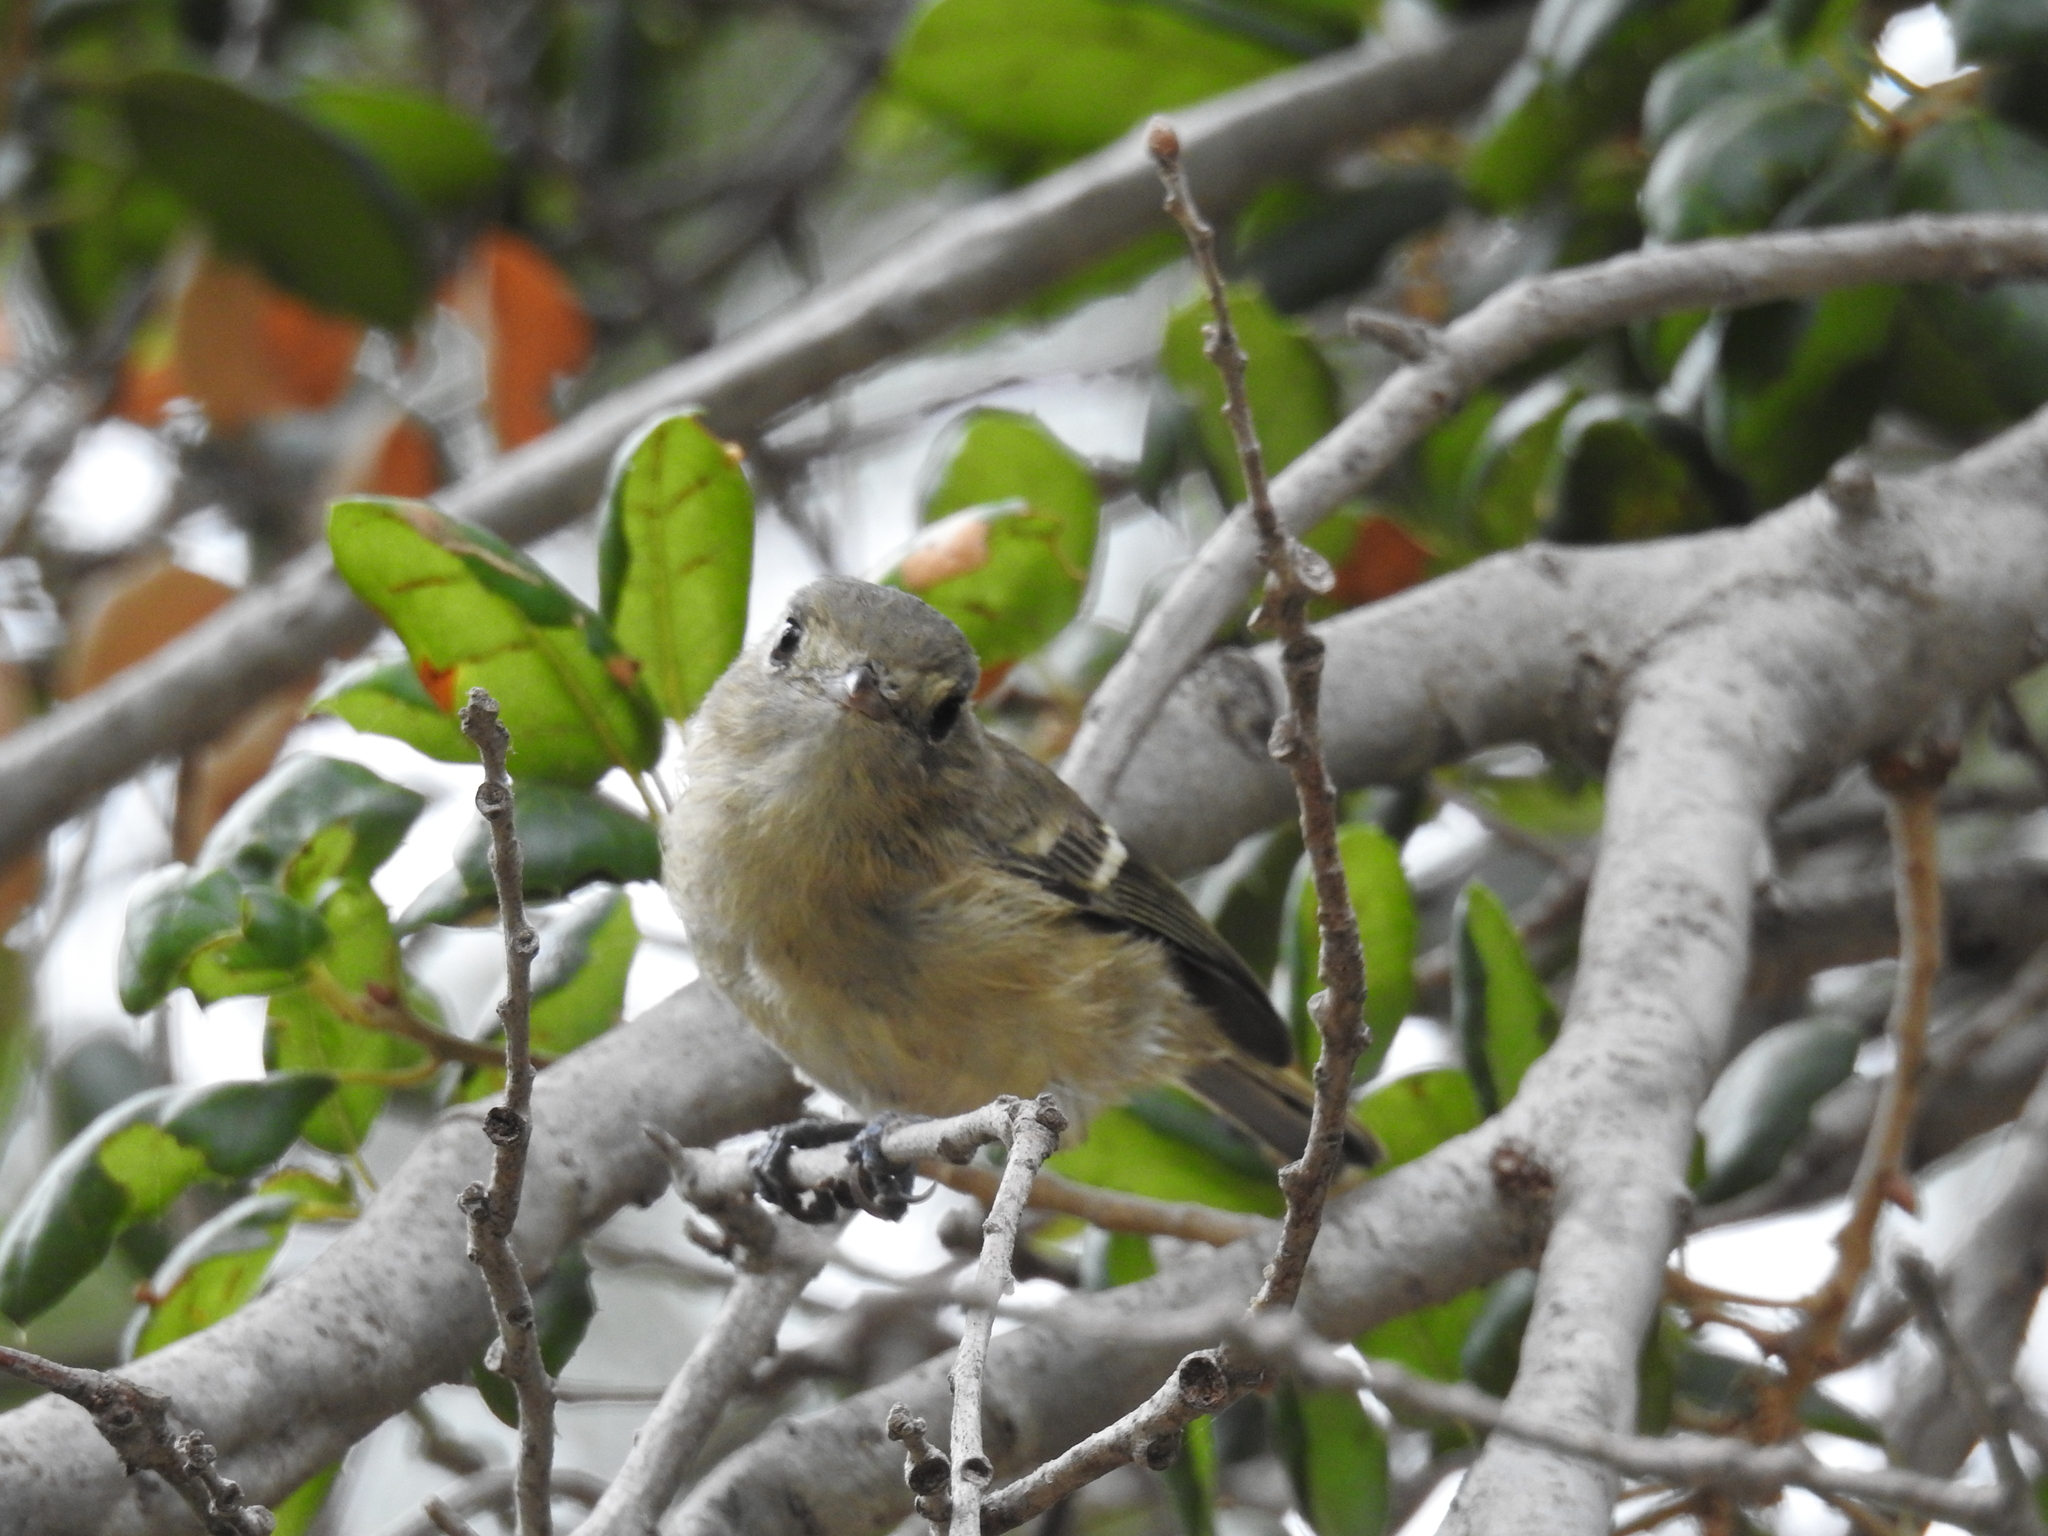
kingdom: Animalia
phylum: Chordata
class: Aves
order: Passeriformes
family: Vireonidae
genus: Vireo
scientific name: Vireo huttoni
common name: Hutton's vireo
